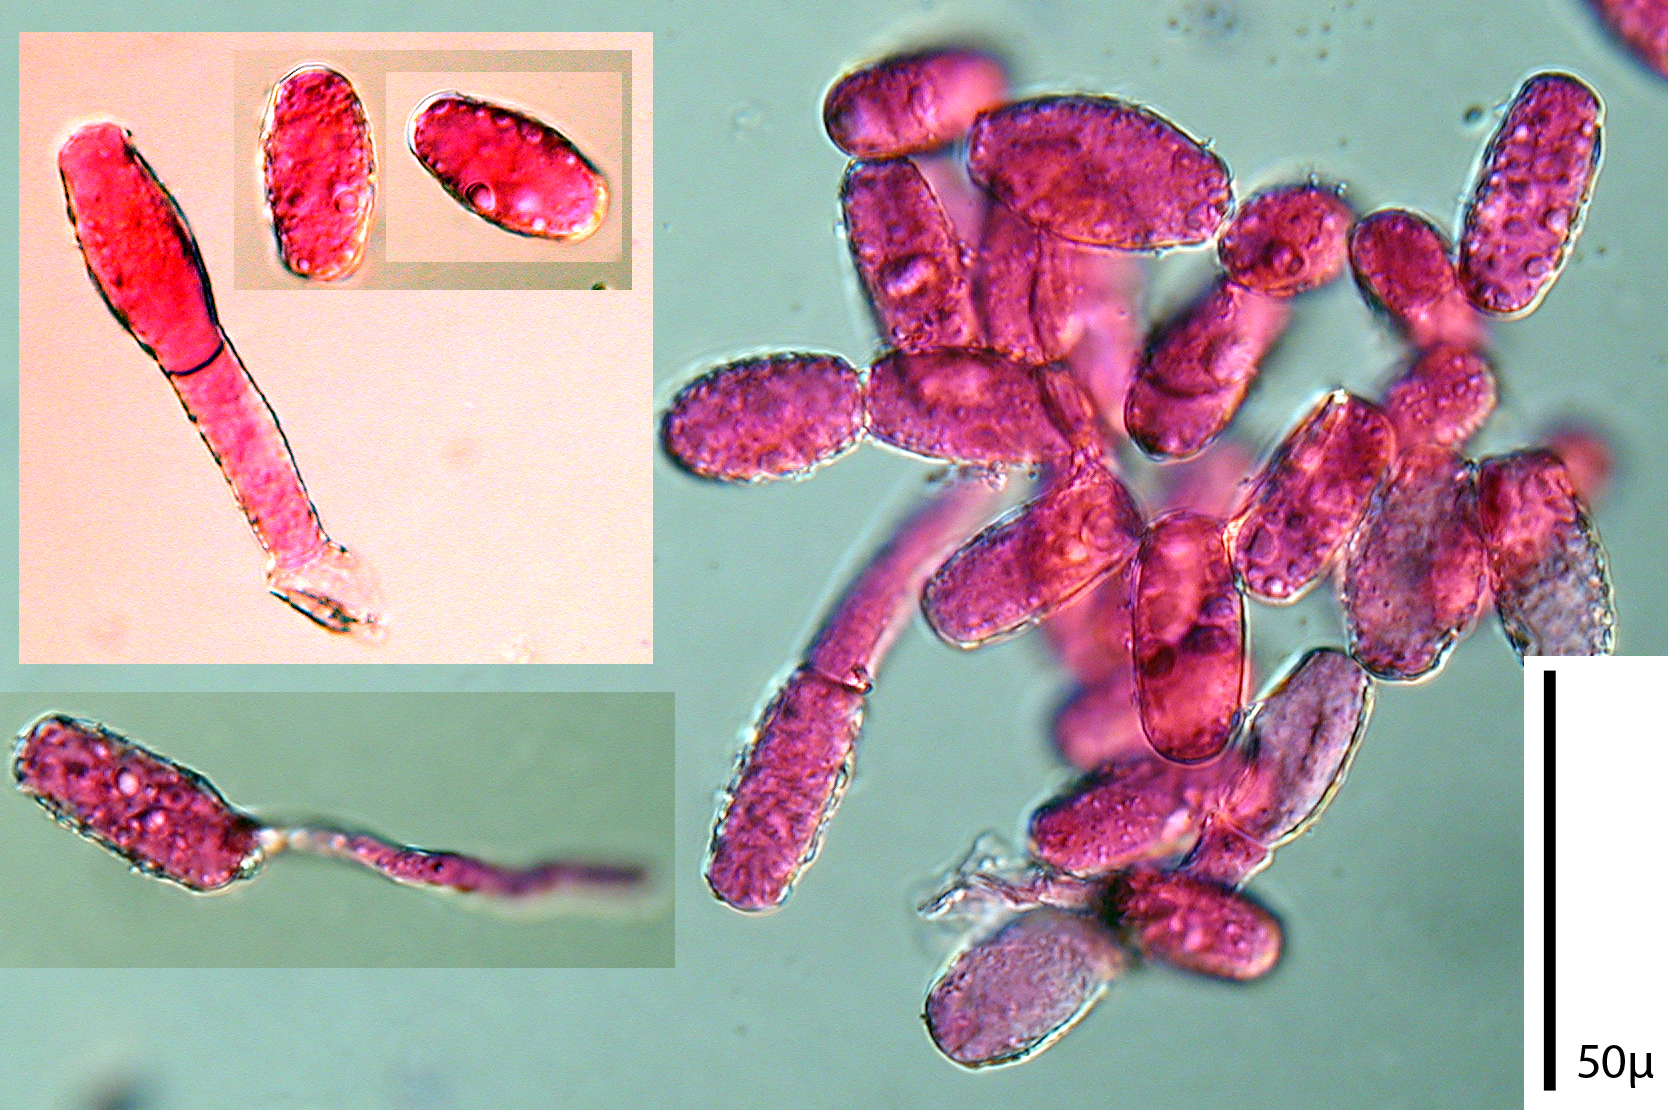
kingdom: Fungi
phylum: Ascomycota
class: Leotiomycetes
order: Helotiales
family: Erysiphaceae
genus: Golovinomyces
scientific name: Golovinomyces monardae
